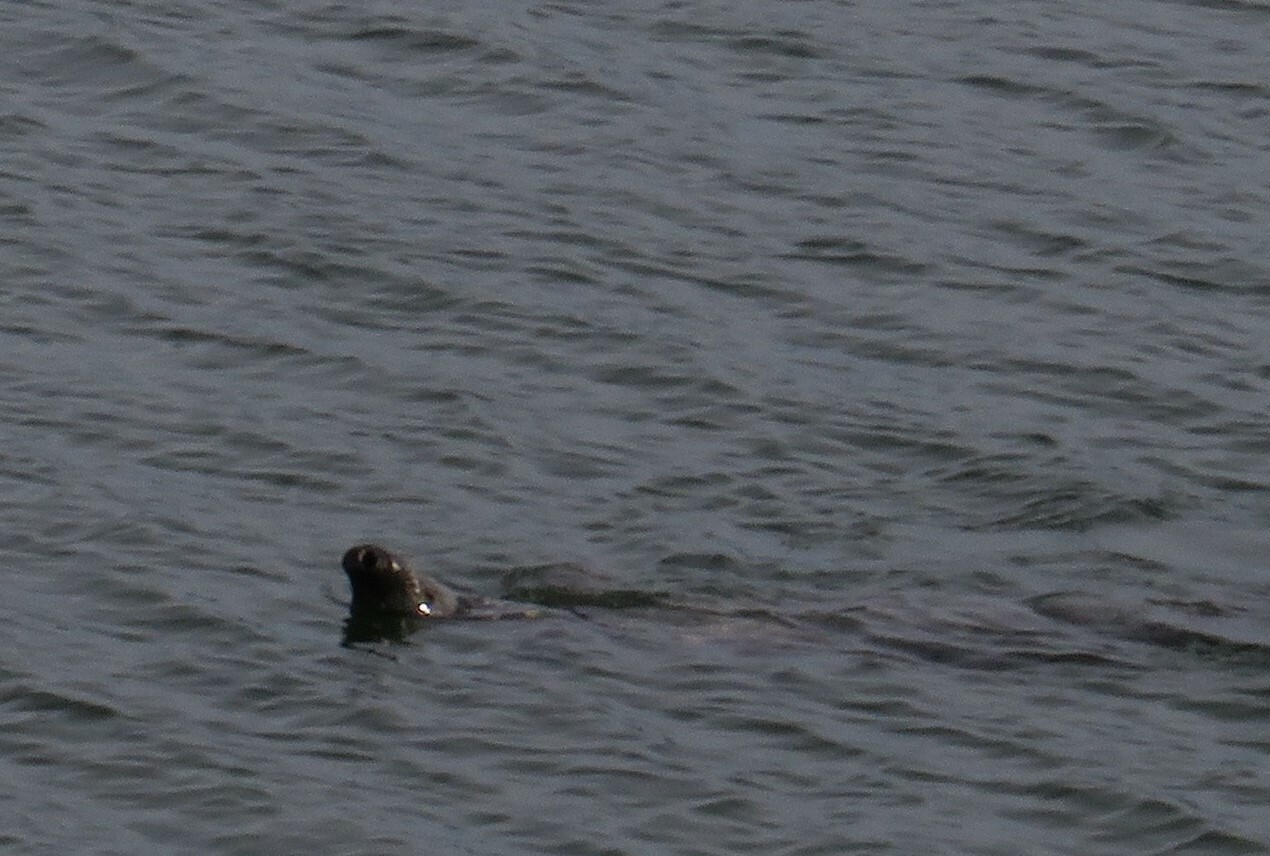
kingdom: Animalia
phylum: Chordata
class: Mammalia
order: Carnivora
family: Phocidae
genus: Halichoerus
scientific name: Halichoerus grypus
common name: Grey seal
